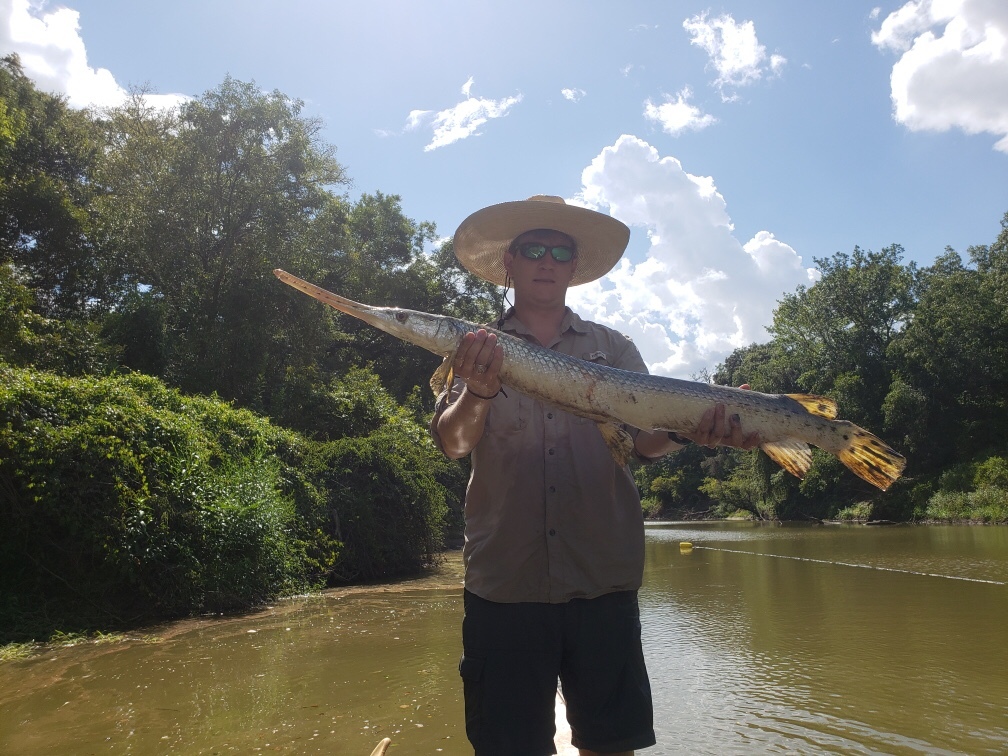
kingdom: Animalia
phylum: Chordata
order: Lepisosteiformes
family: Lepisosteidae
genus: Lepisosteus
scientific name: Lepisosteus osseus
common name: Longnose gar
